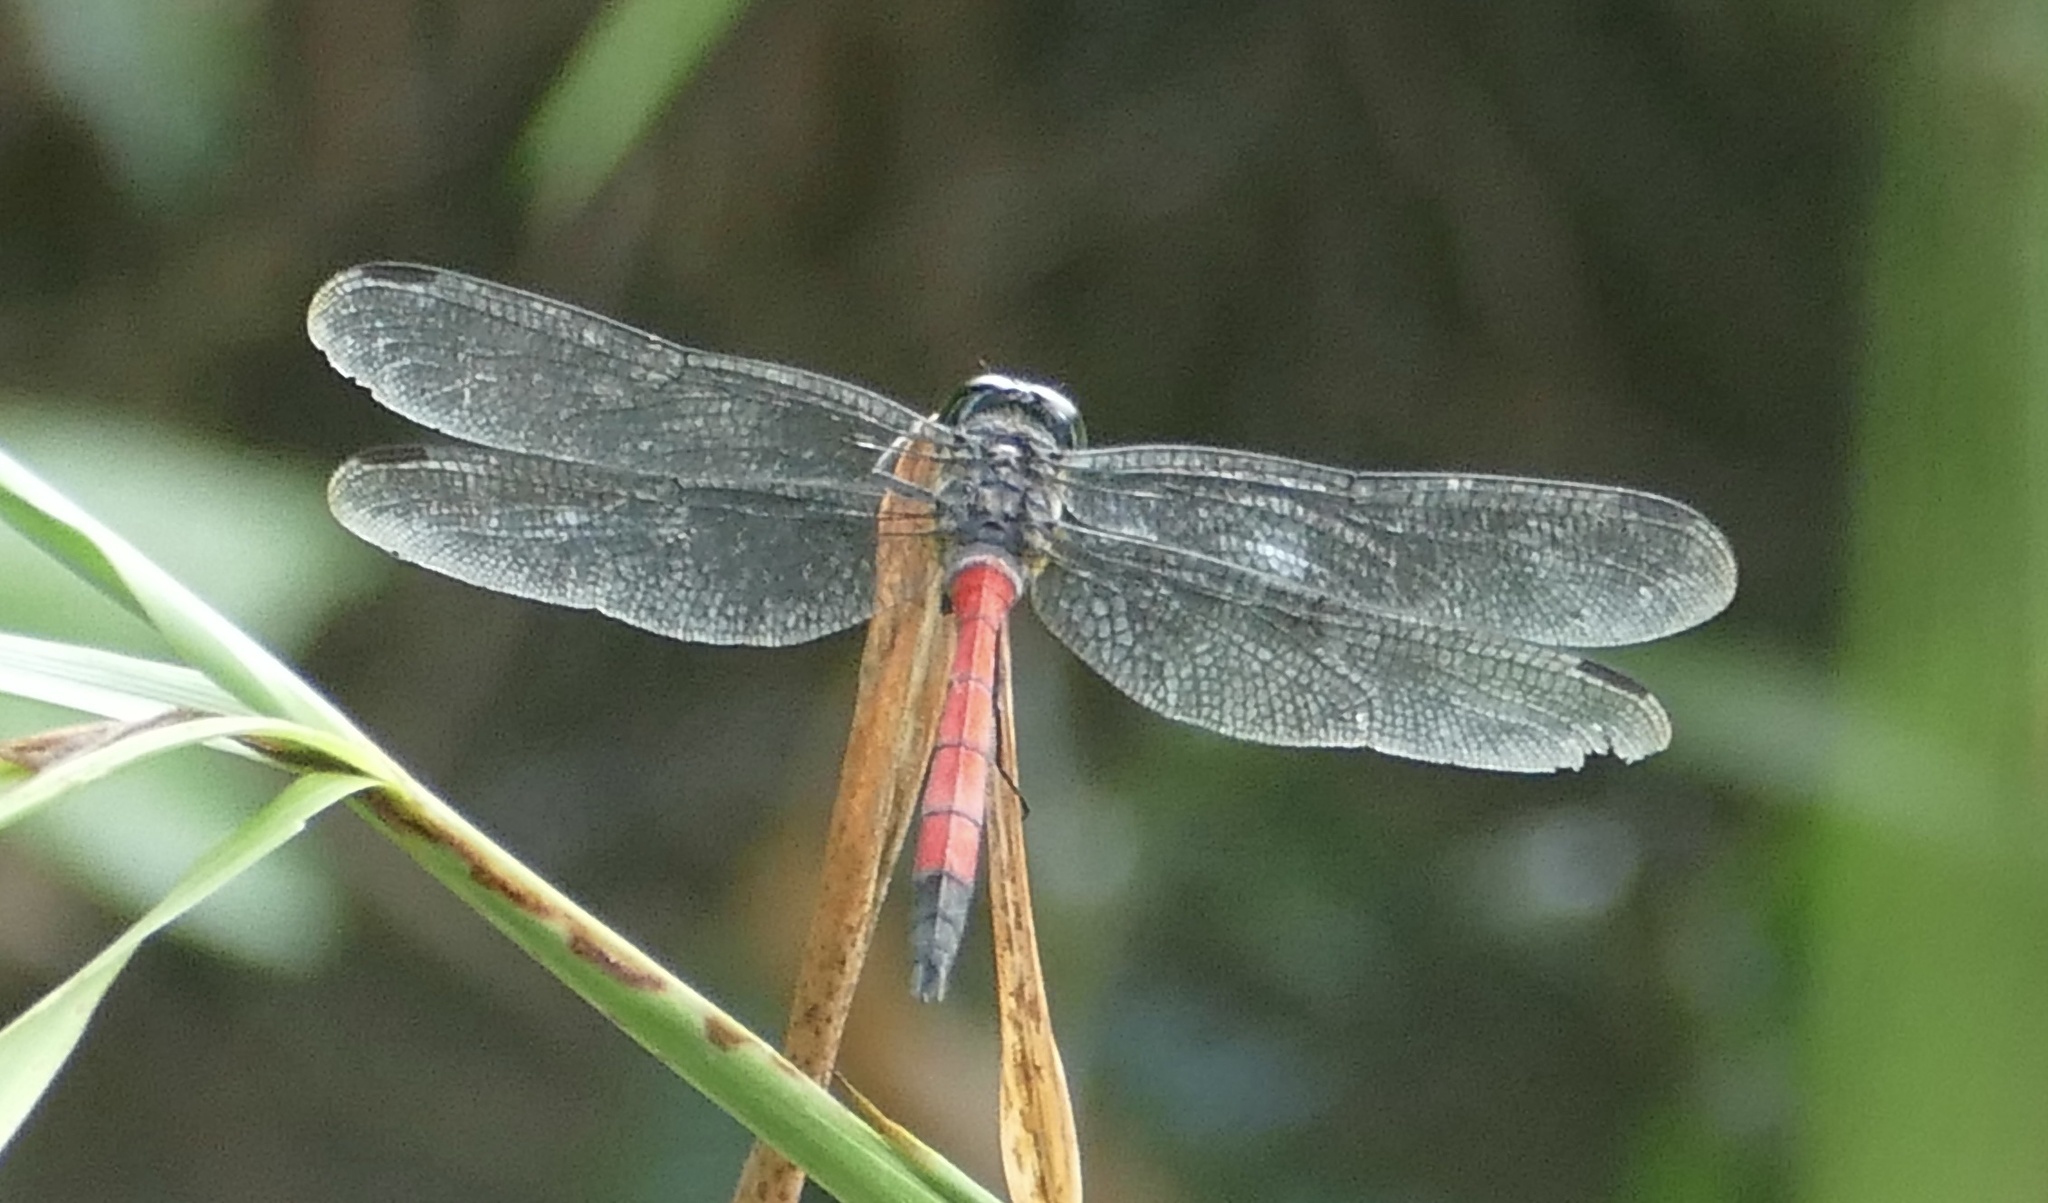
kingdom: Animalia
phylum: Arthropoda
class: Insecta
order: Odonata
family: Libellulidae
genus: Agrionoptera
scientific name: Agrionoptera insignis
